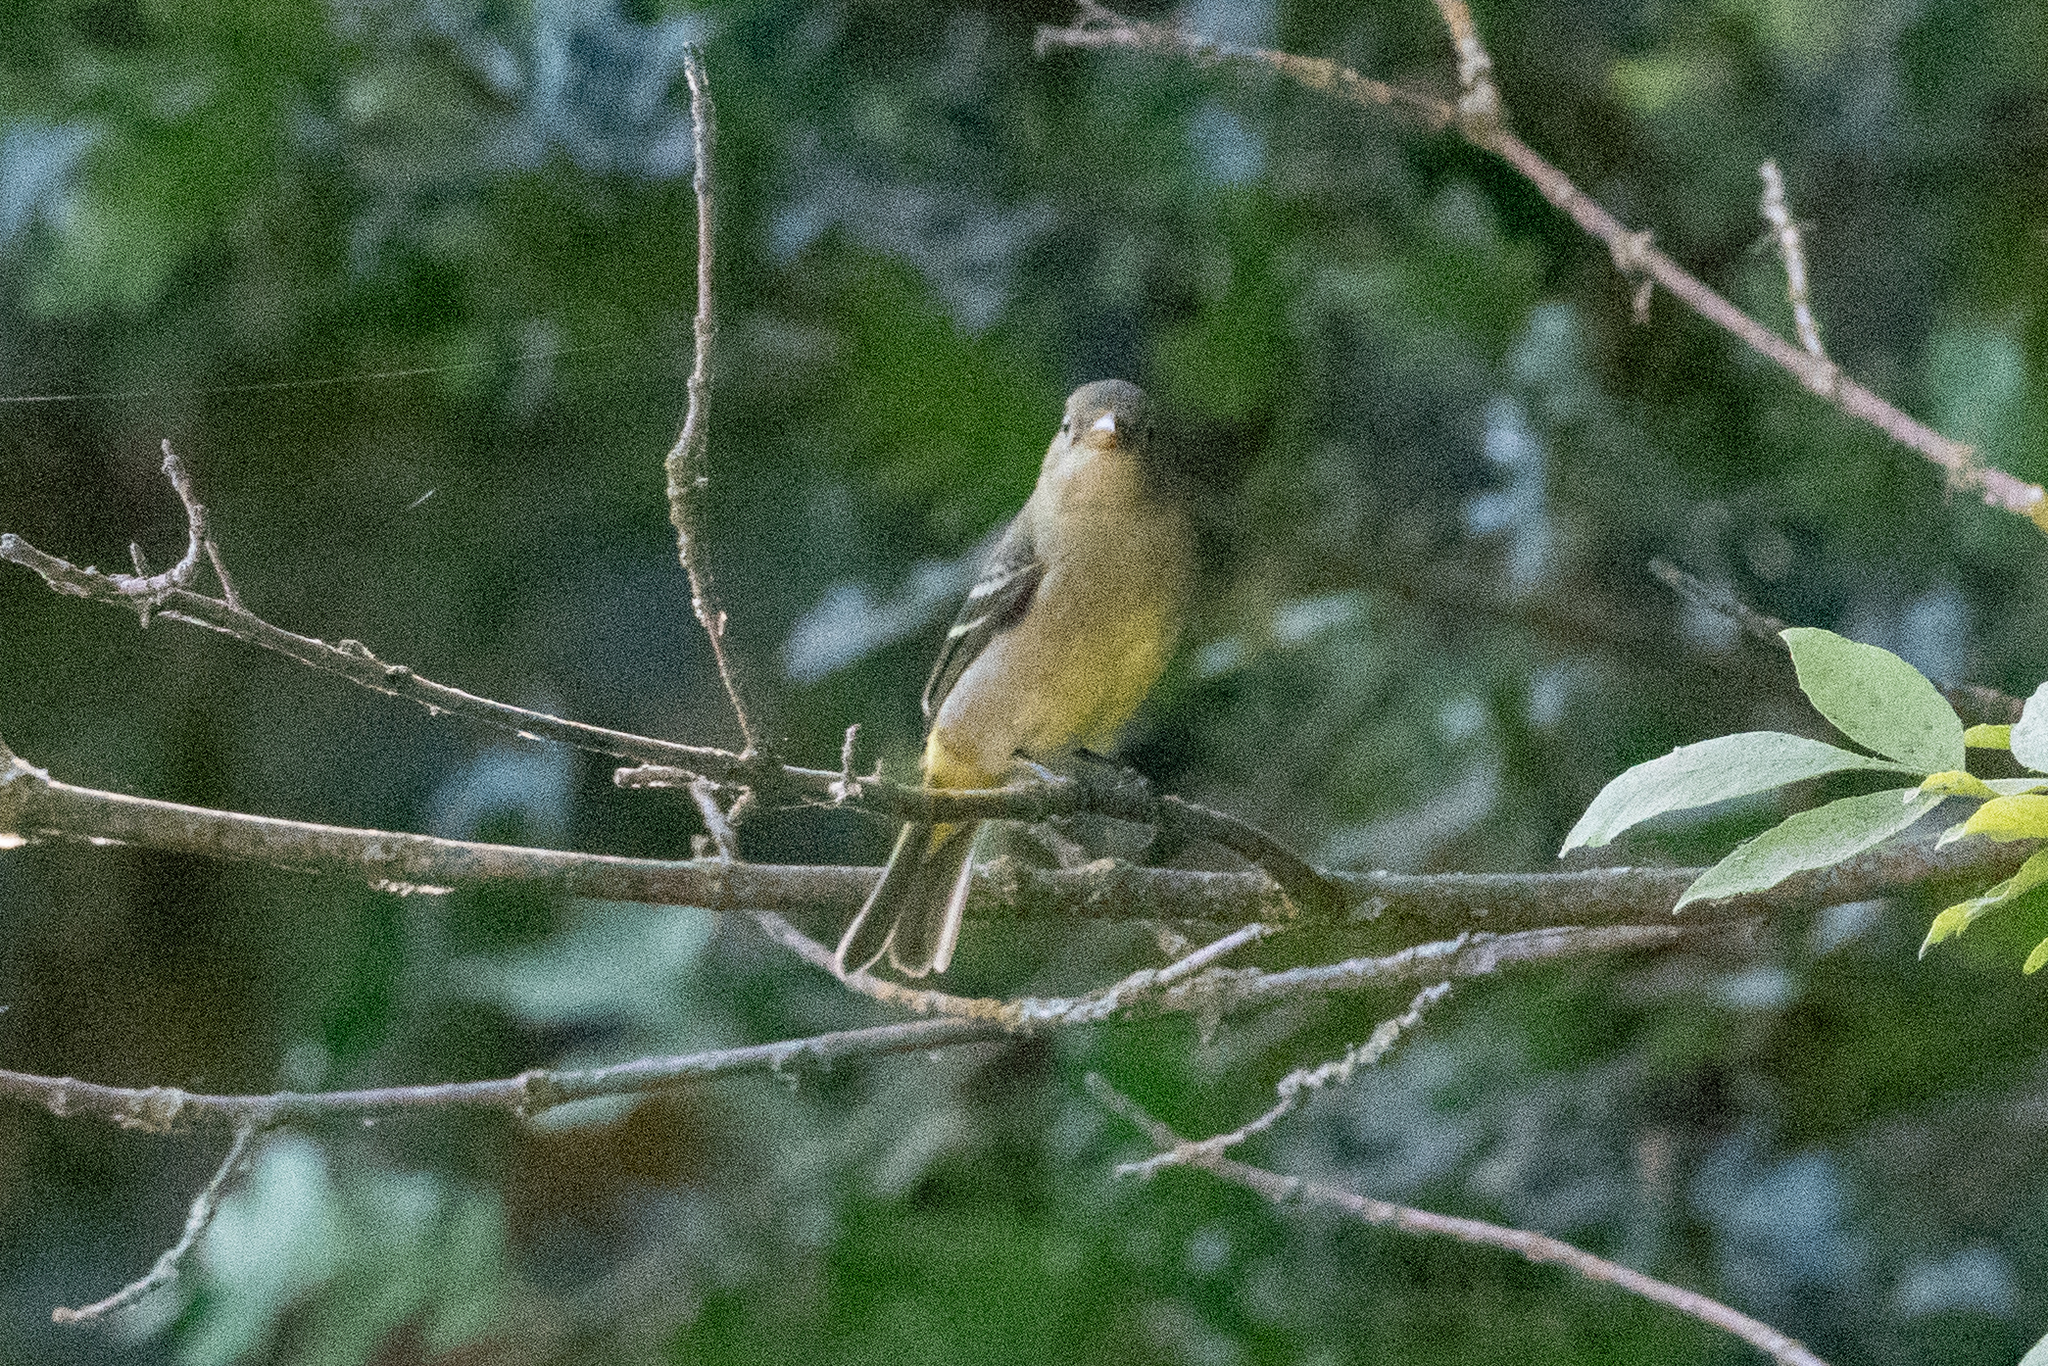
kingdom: Animalia
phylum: Chordata
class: Aves
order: Passeriformes
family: Cardinalidae
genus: Piranga
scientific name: Piranga ludoviciana
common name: Western tanager
